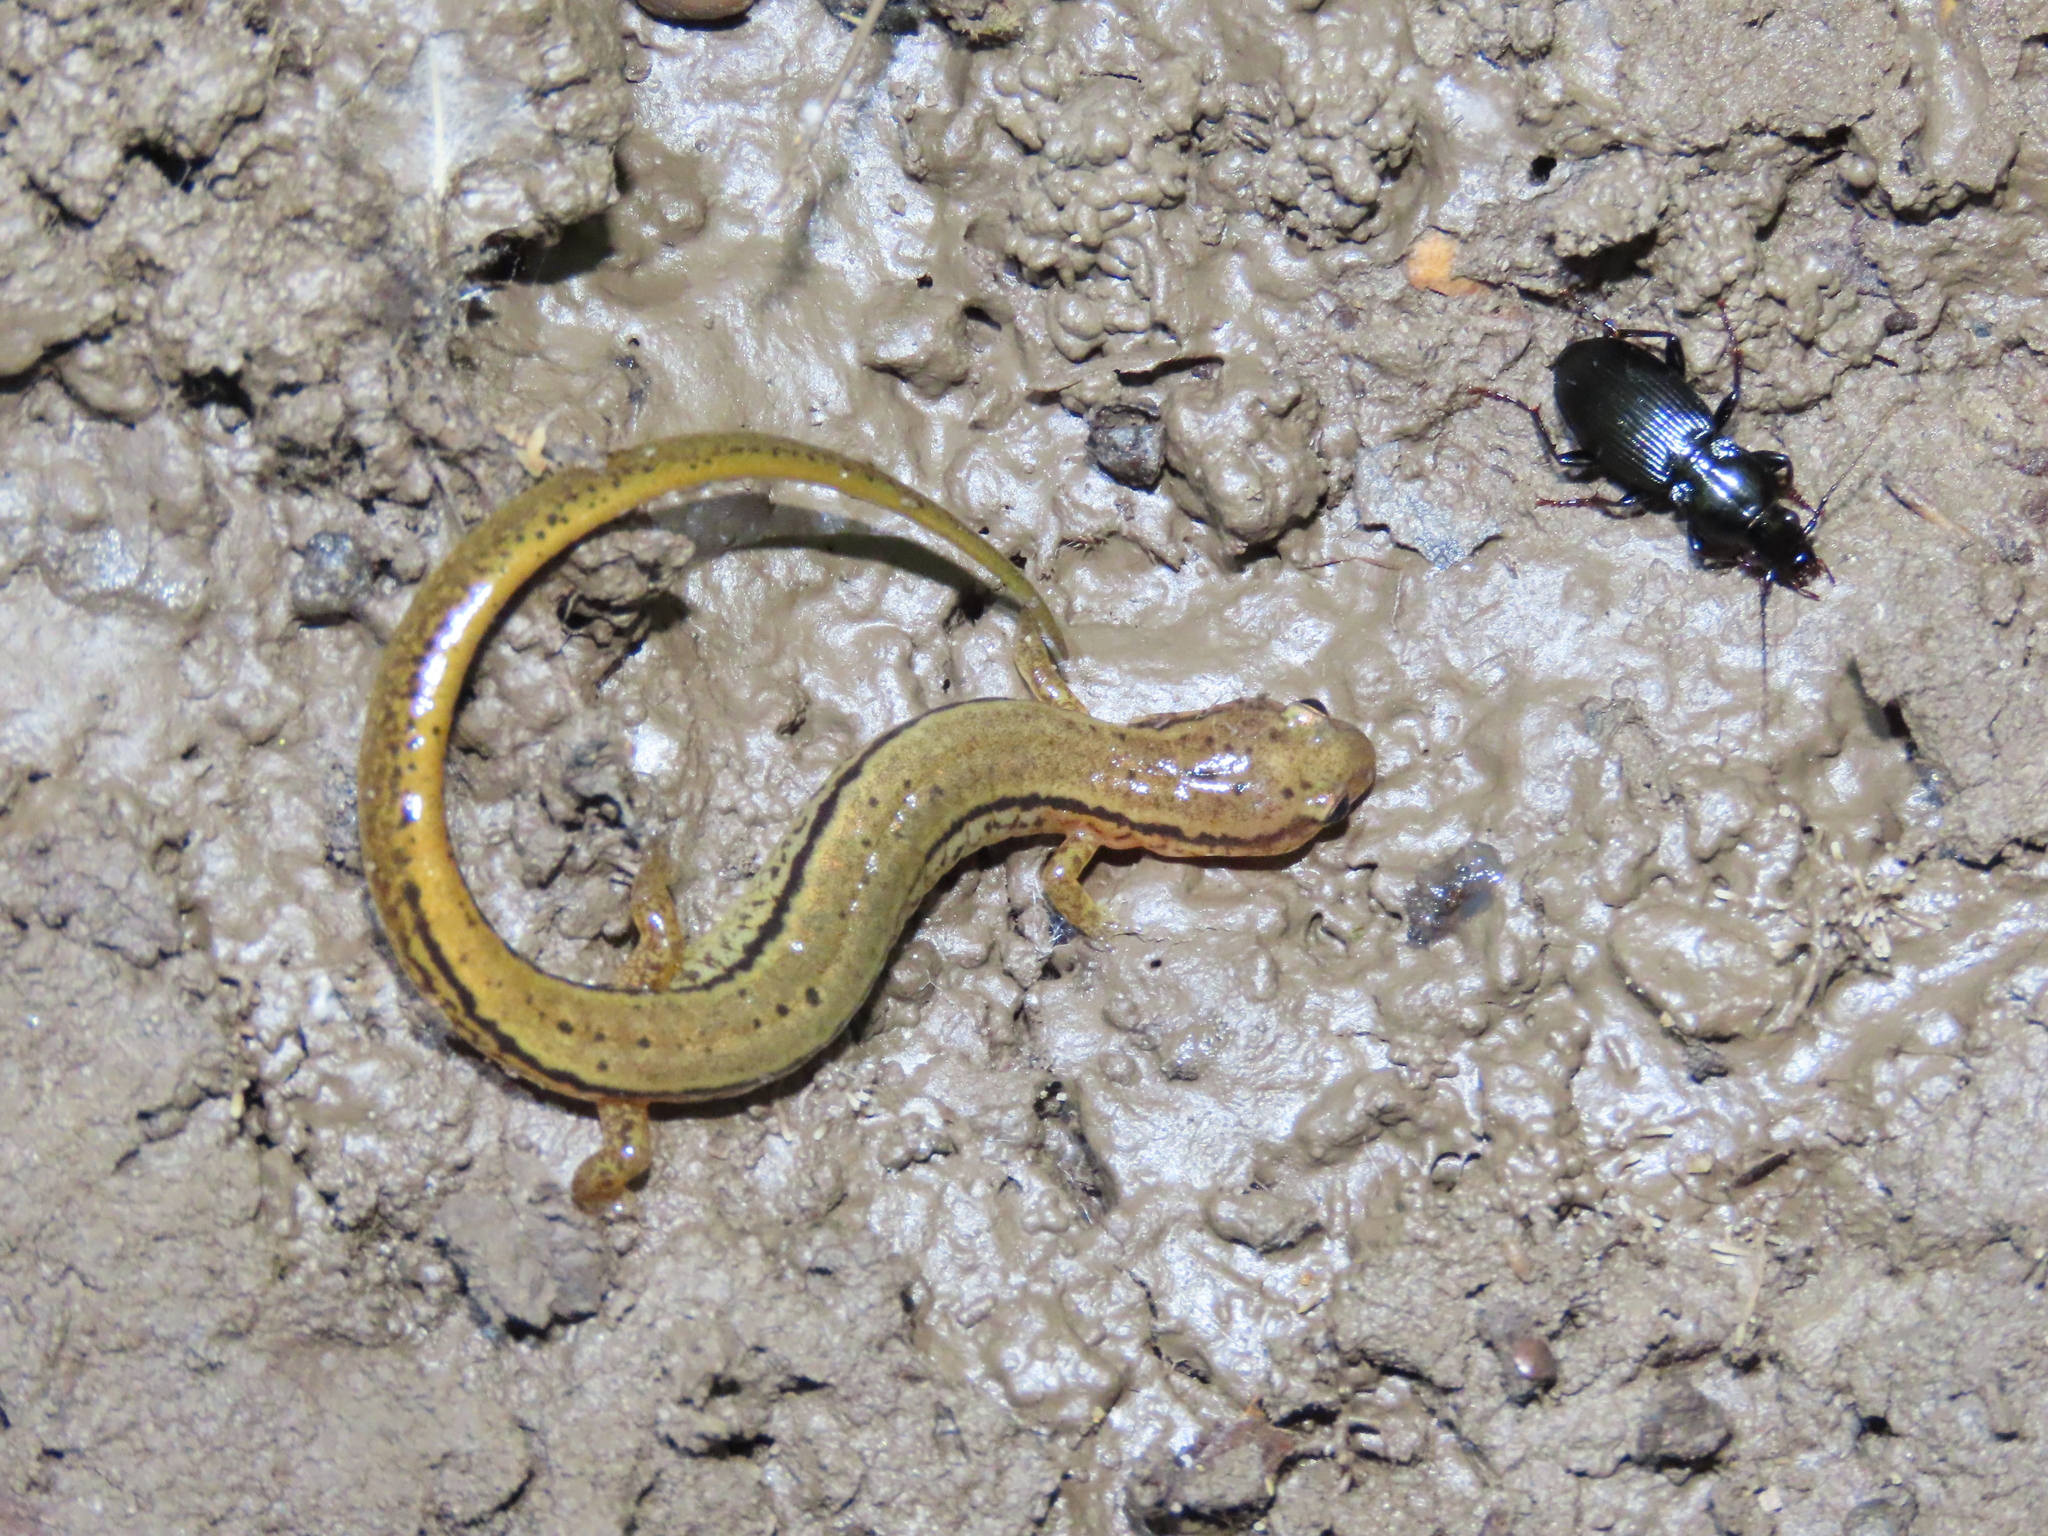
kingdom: Animalia
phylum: Chordata
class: Amphibia
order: Caudata
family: Plethodontidae
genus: Eurycea
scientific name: Eurycea bislineata
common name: Northern two-lined salamander
